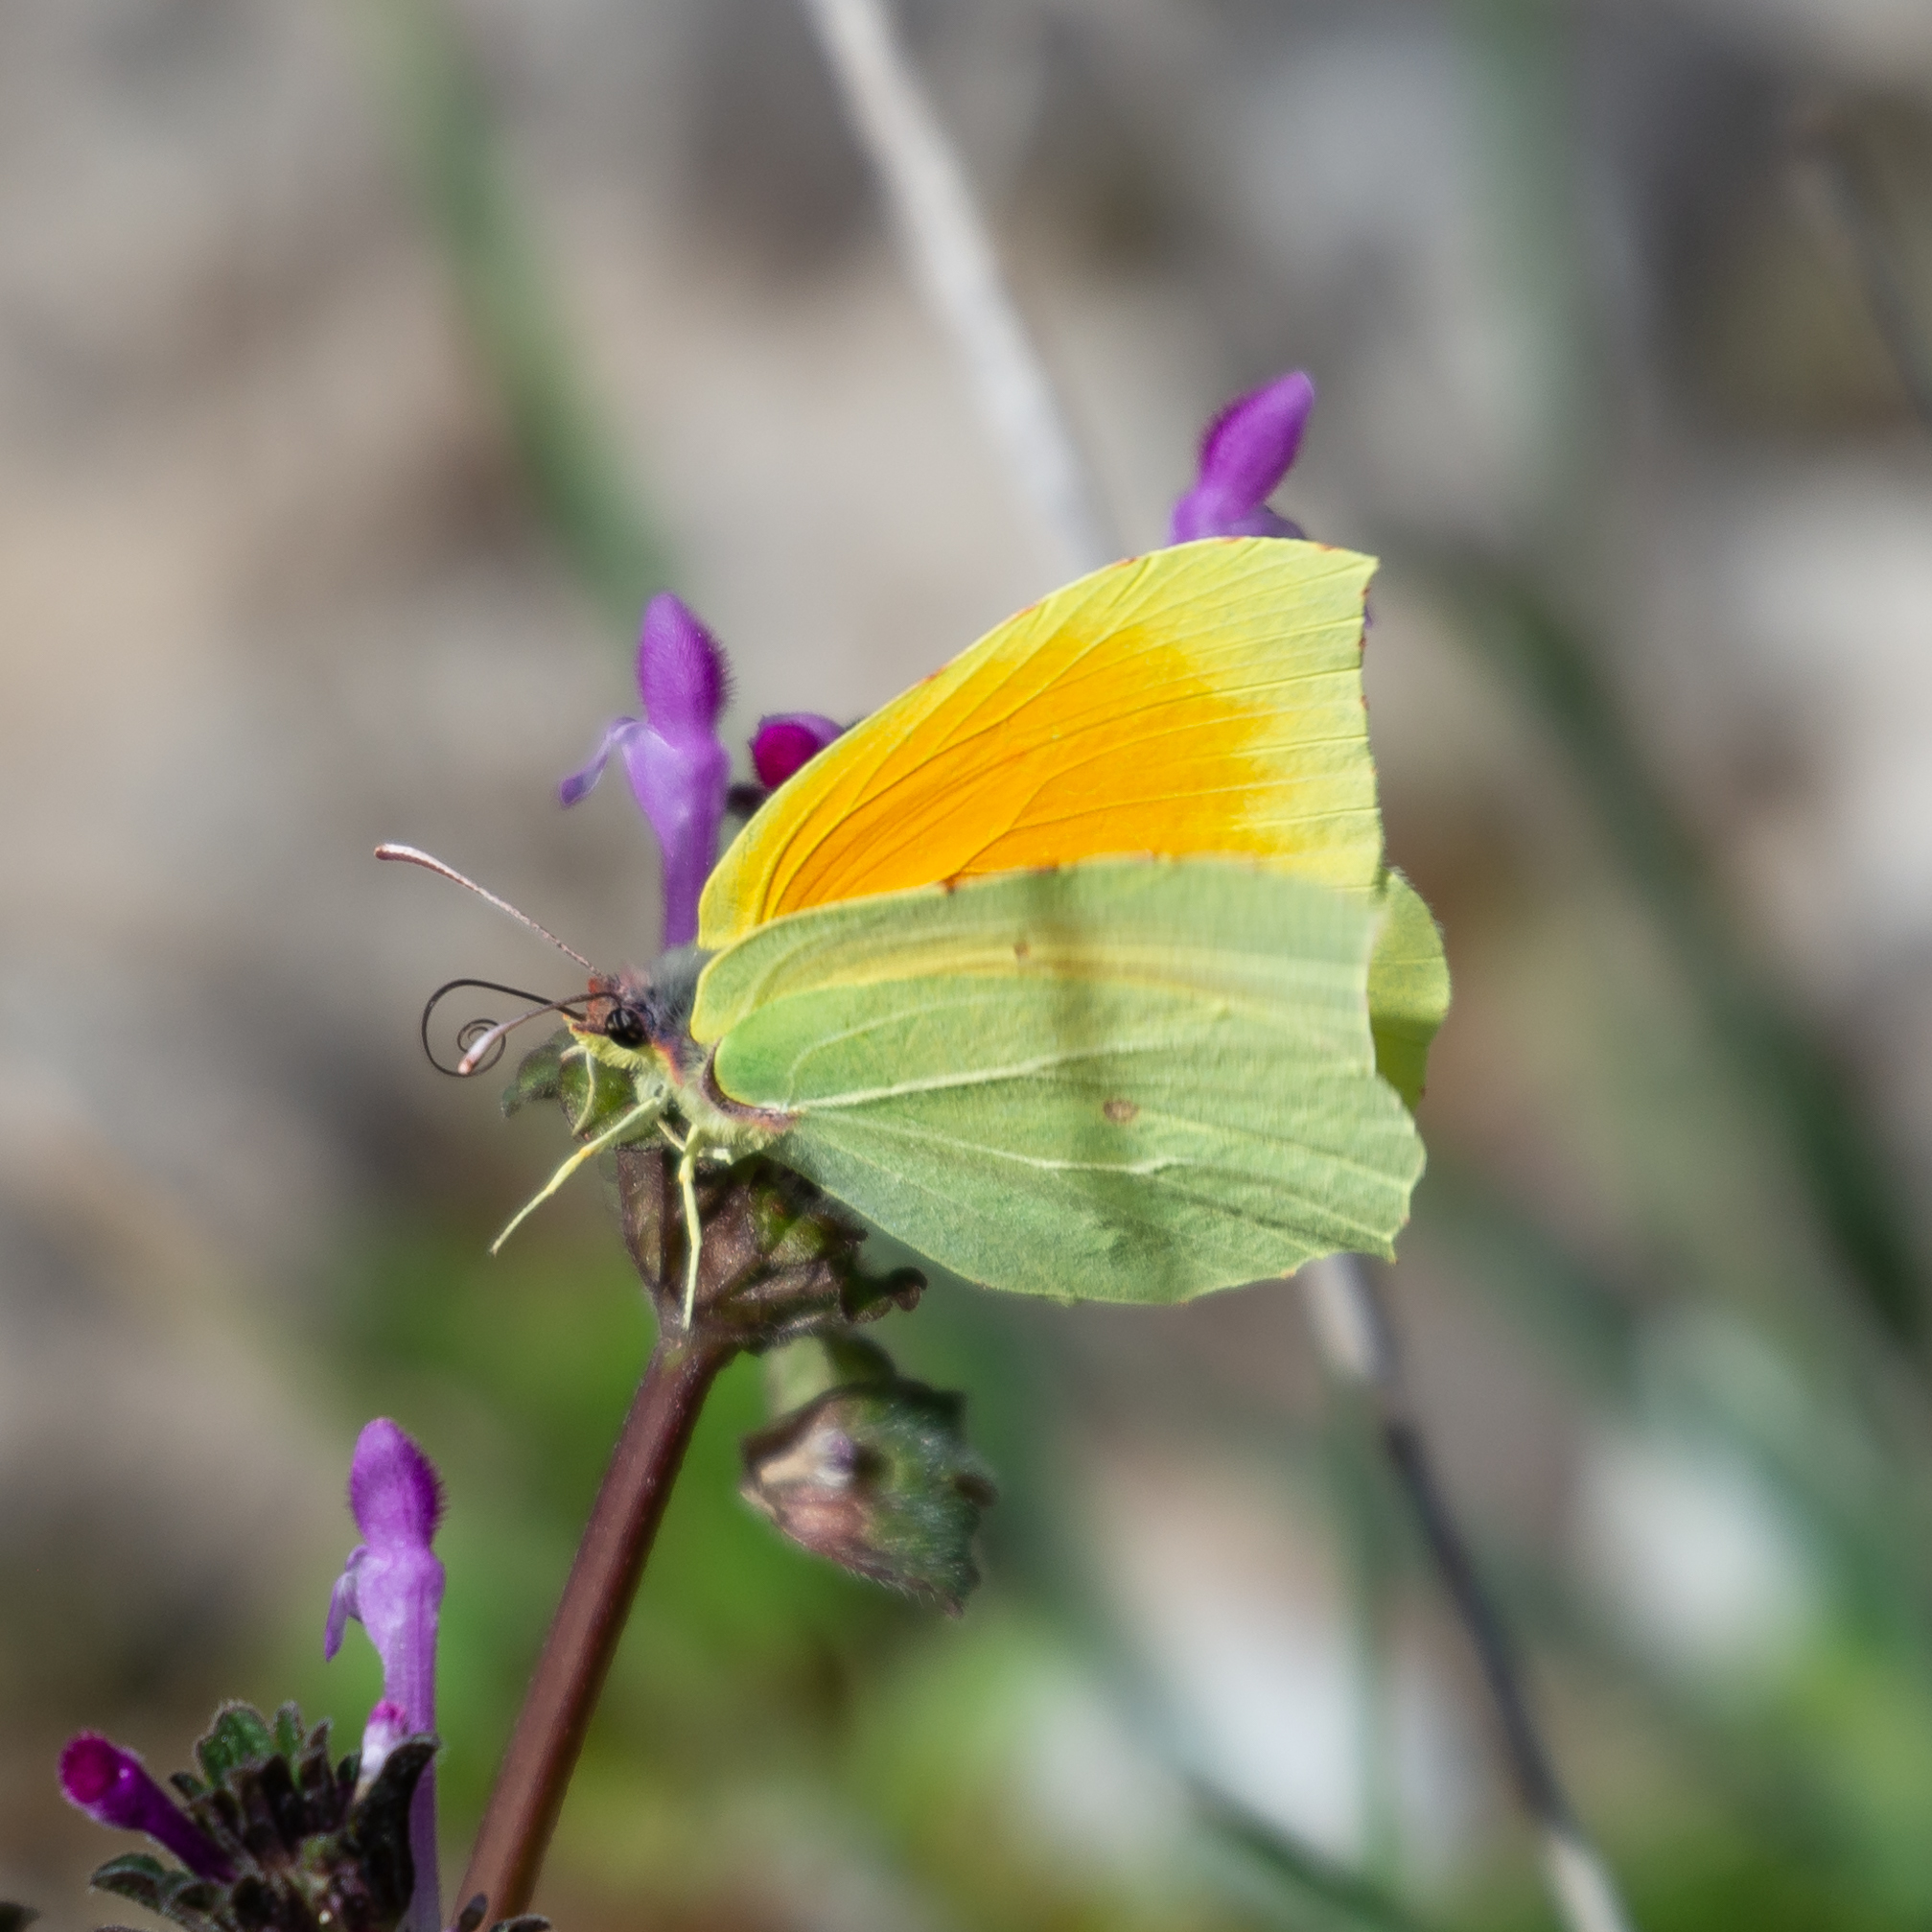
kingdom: Animalia
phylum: Arthropoda
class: Insecta
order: Lepidoptera
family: Pieridae
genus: Gonepteryx
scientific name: Gonepteryx cleopatra
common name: Cleopatra
